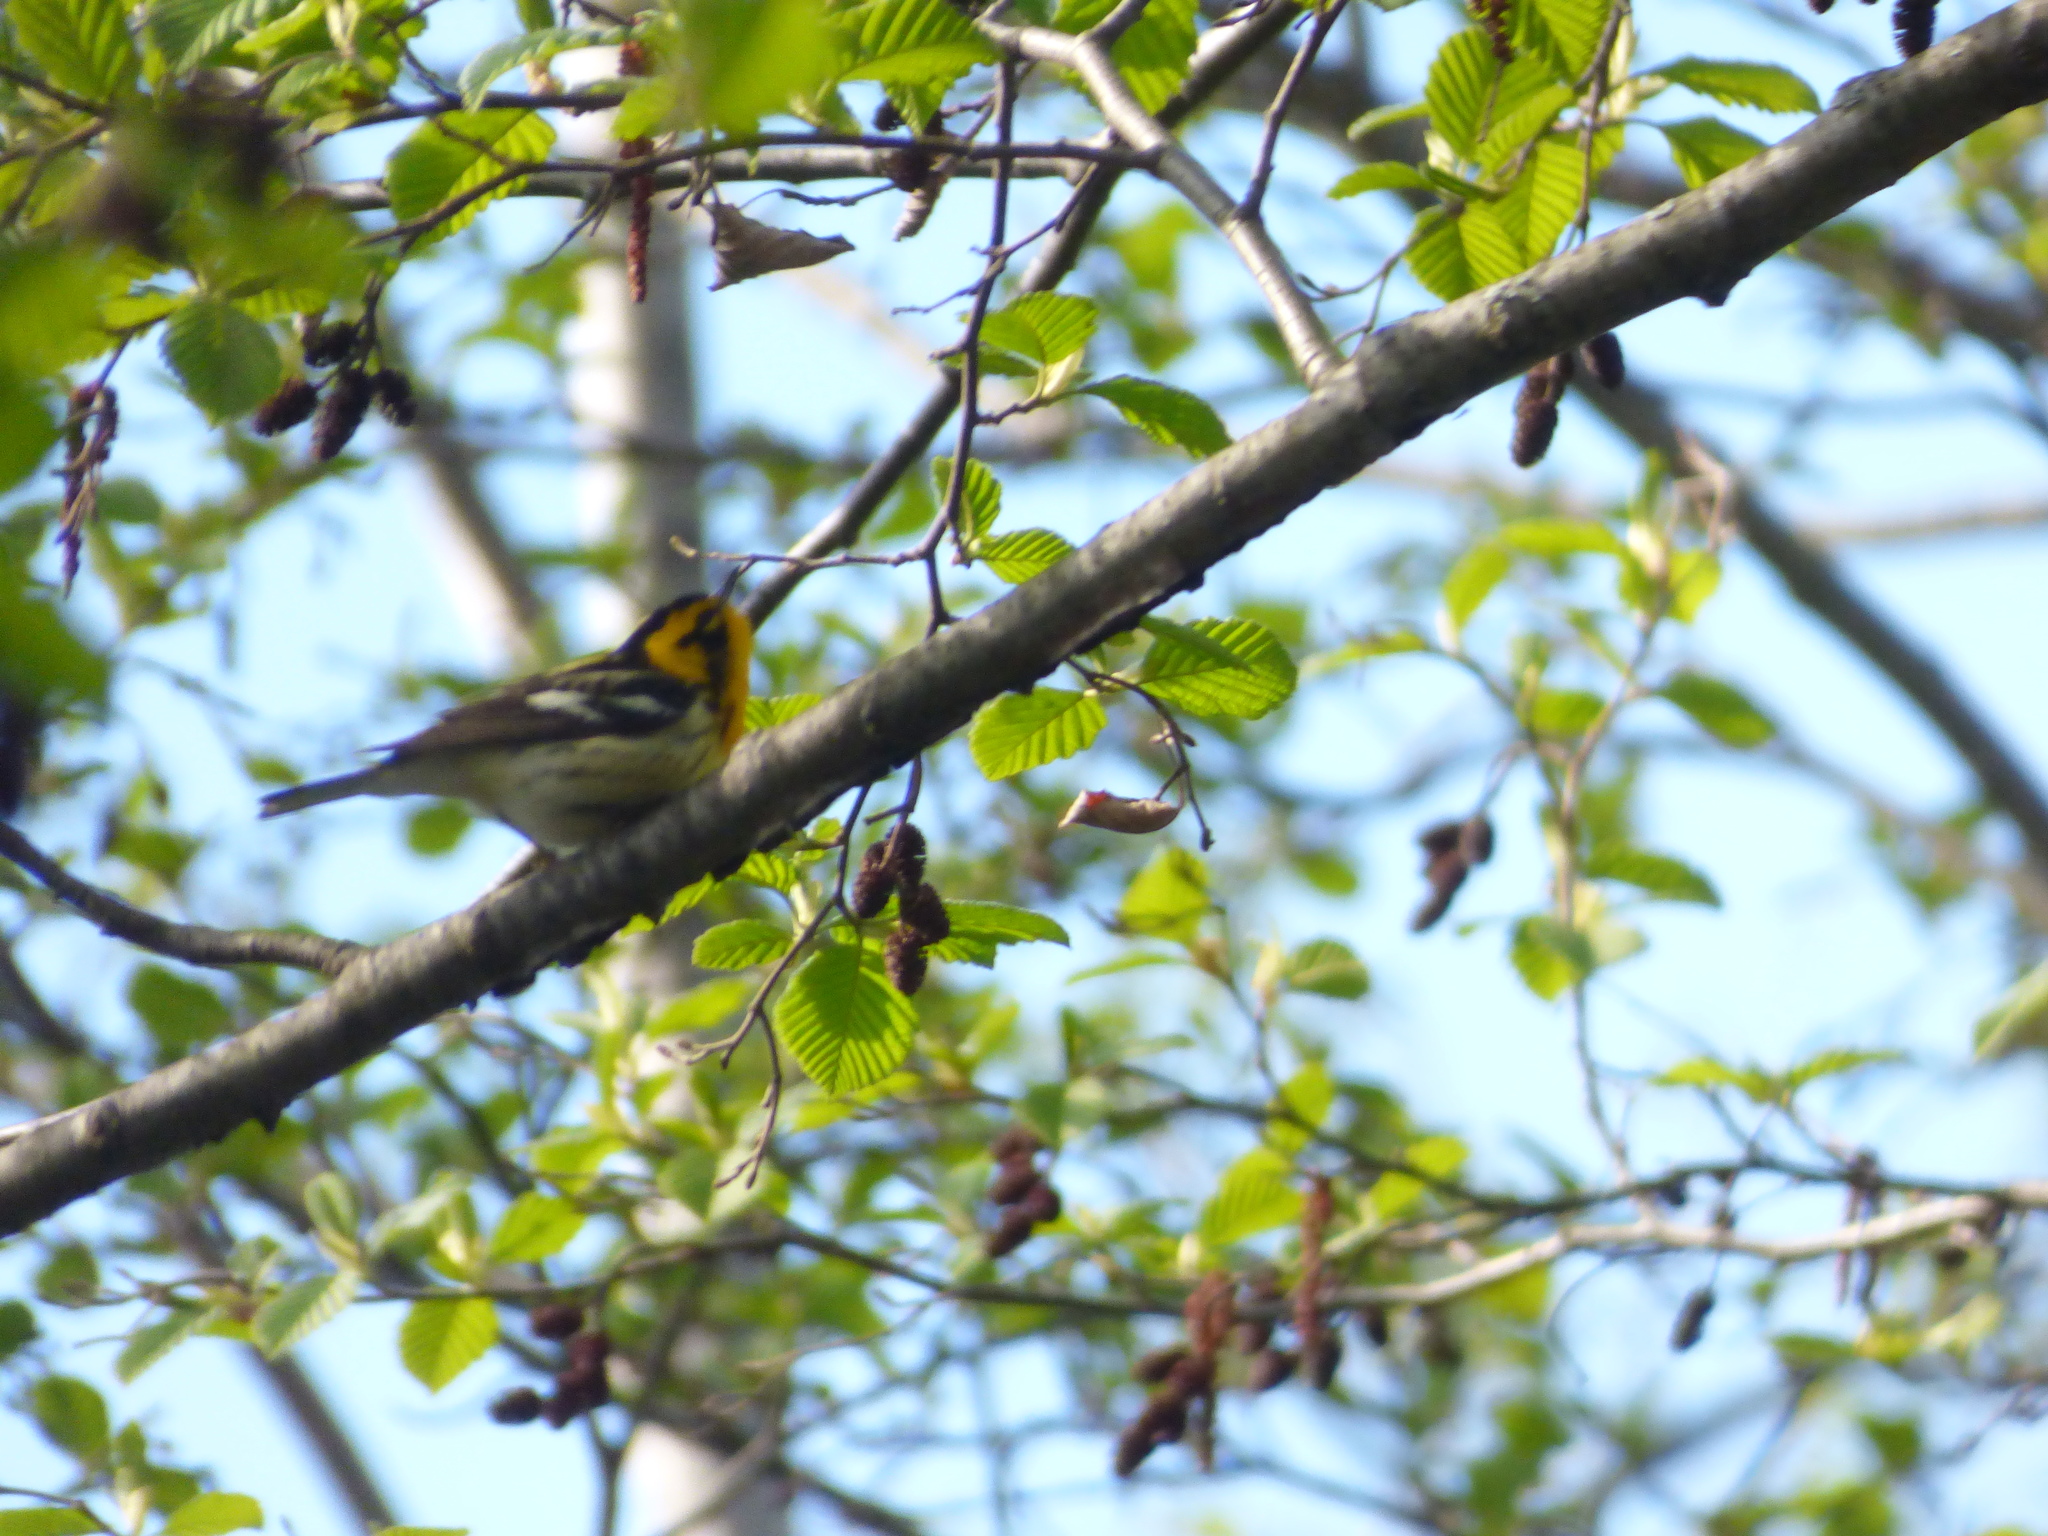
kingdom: Animalia
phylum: Chordata
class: Aves
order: Passeriformes
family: Parulidae
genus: Setophaga
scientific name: Setophaga fusca
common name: Blackburnian warbler
